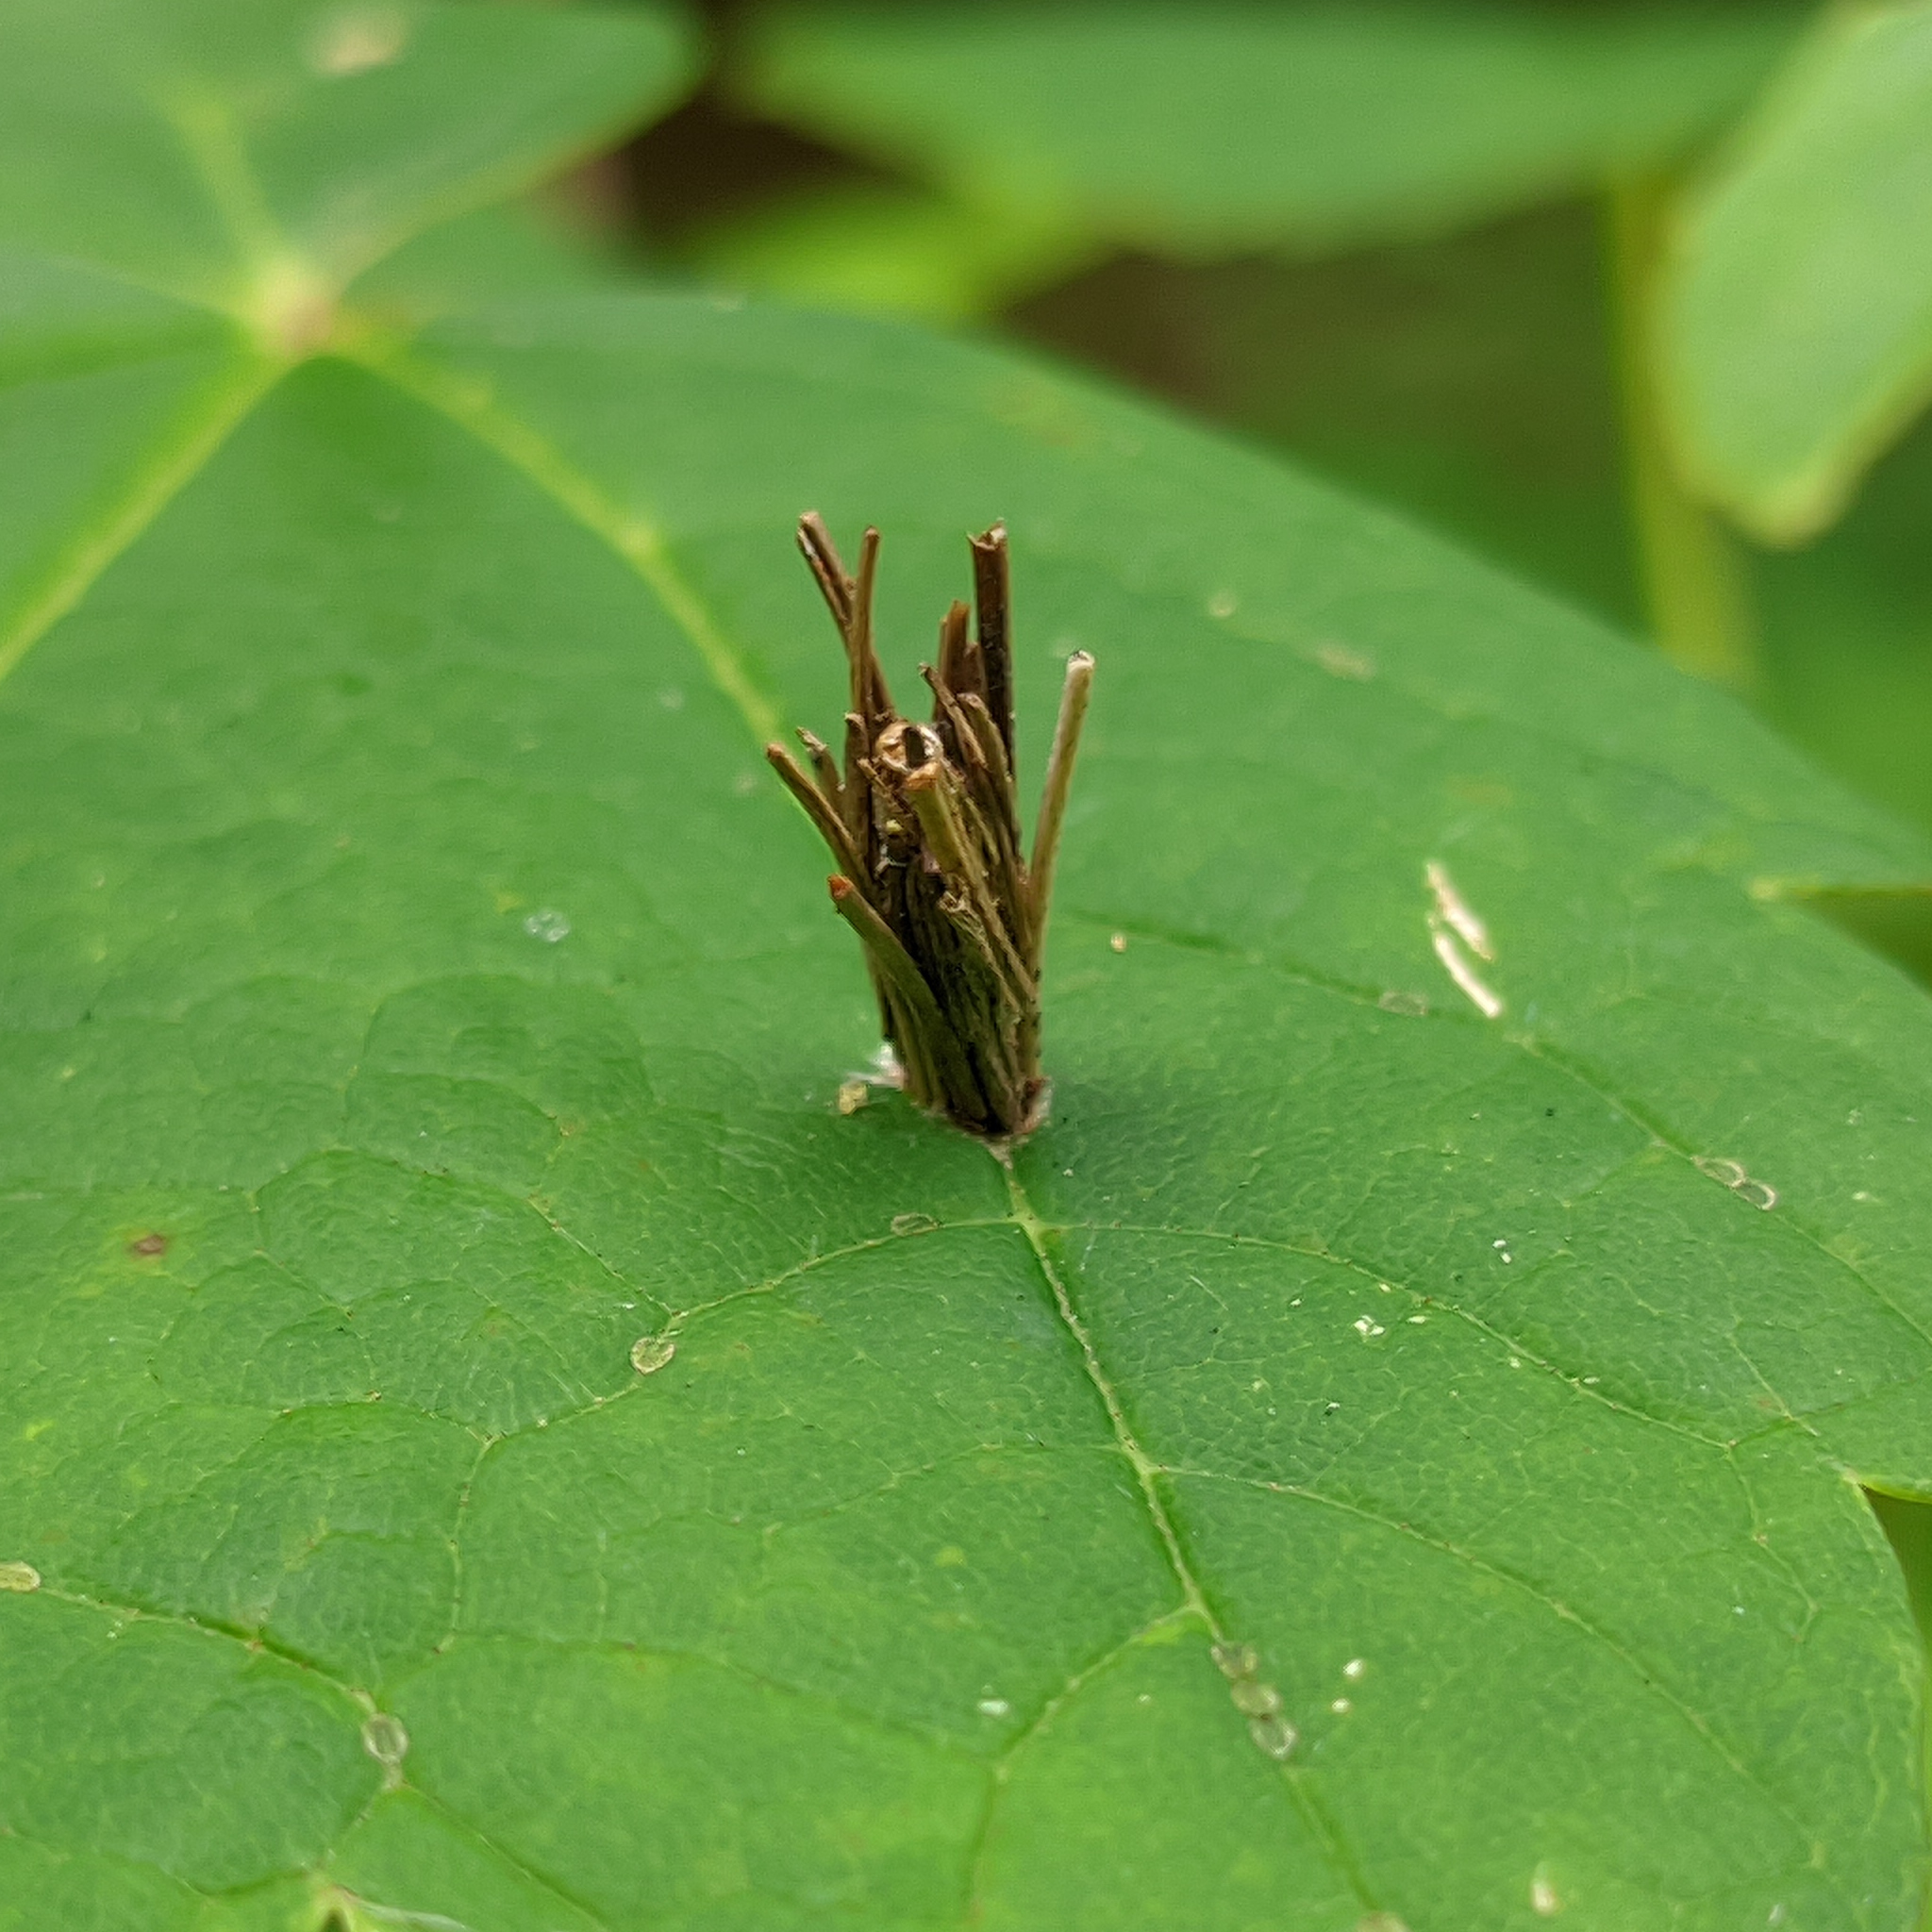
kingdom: Animalia
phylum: Arthropoda
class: Insecta
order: Lepidoptera
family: Psychidae
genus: Psyche
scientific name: Psyche casta
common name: Common sweep
